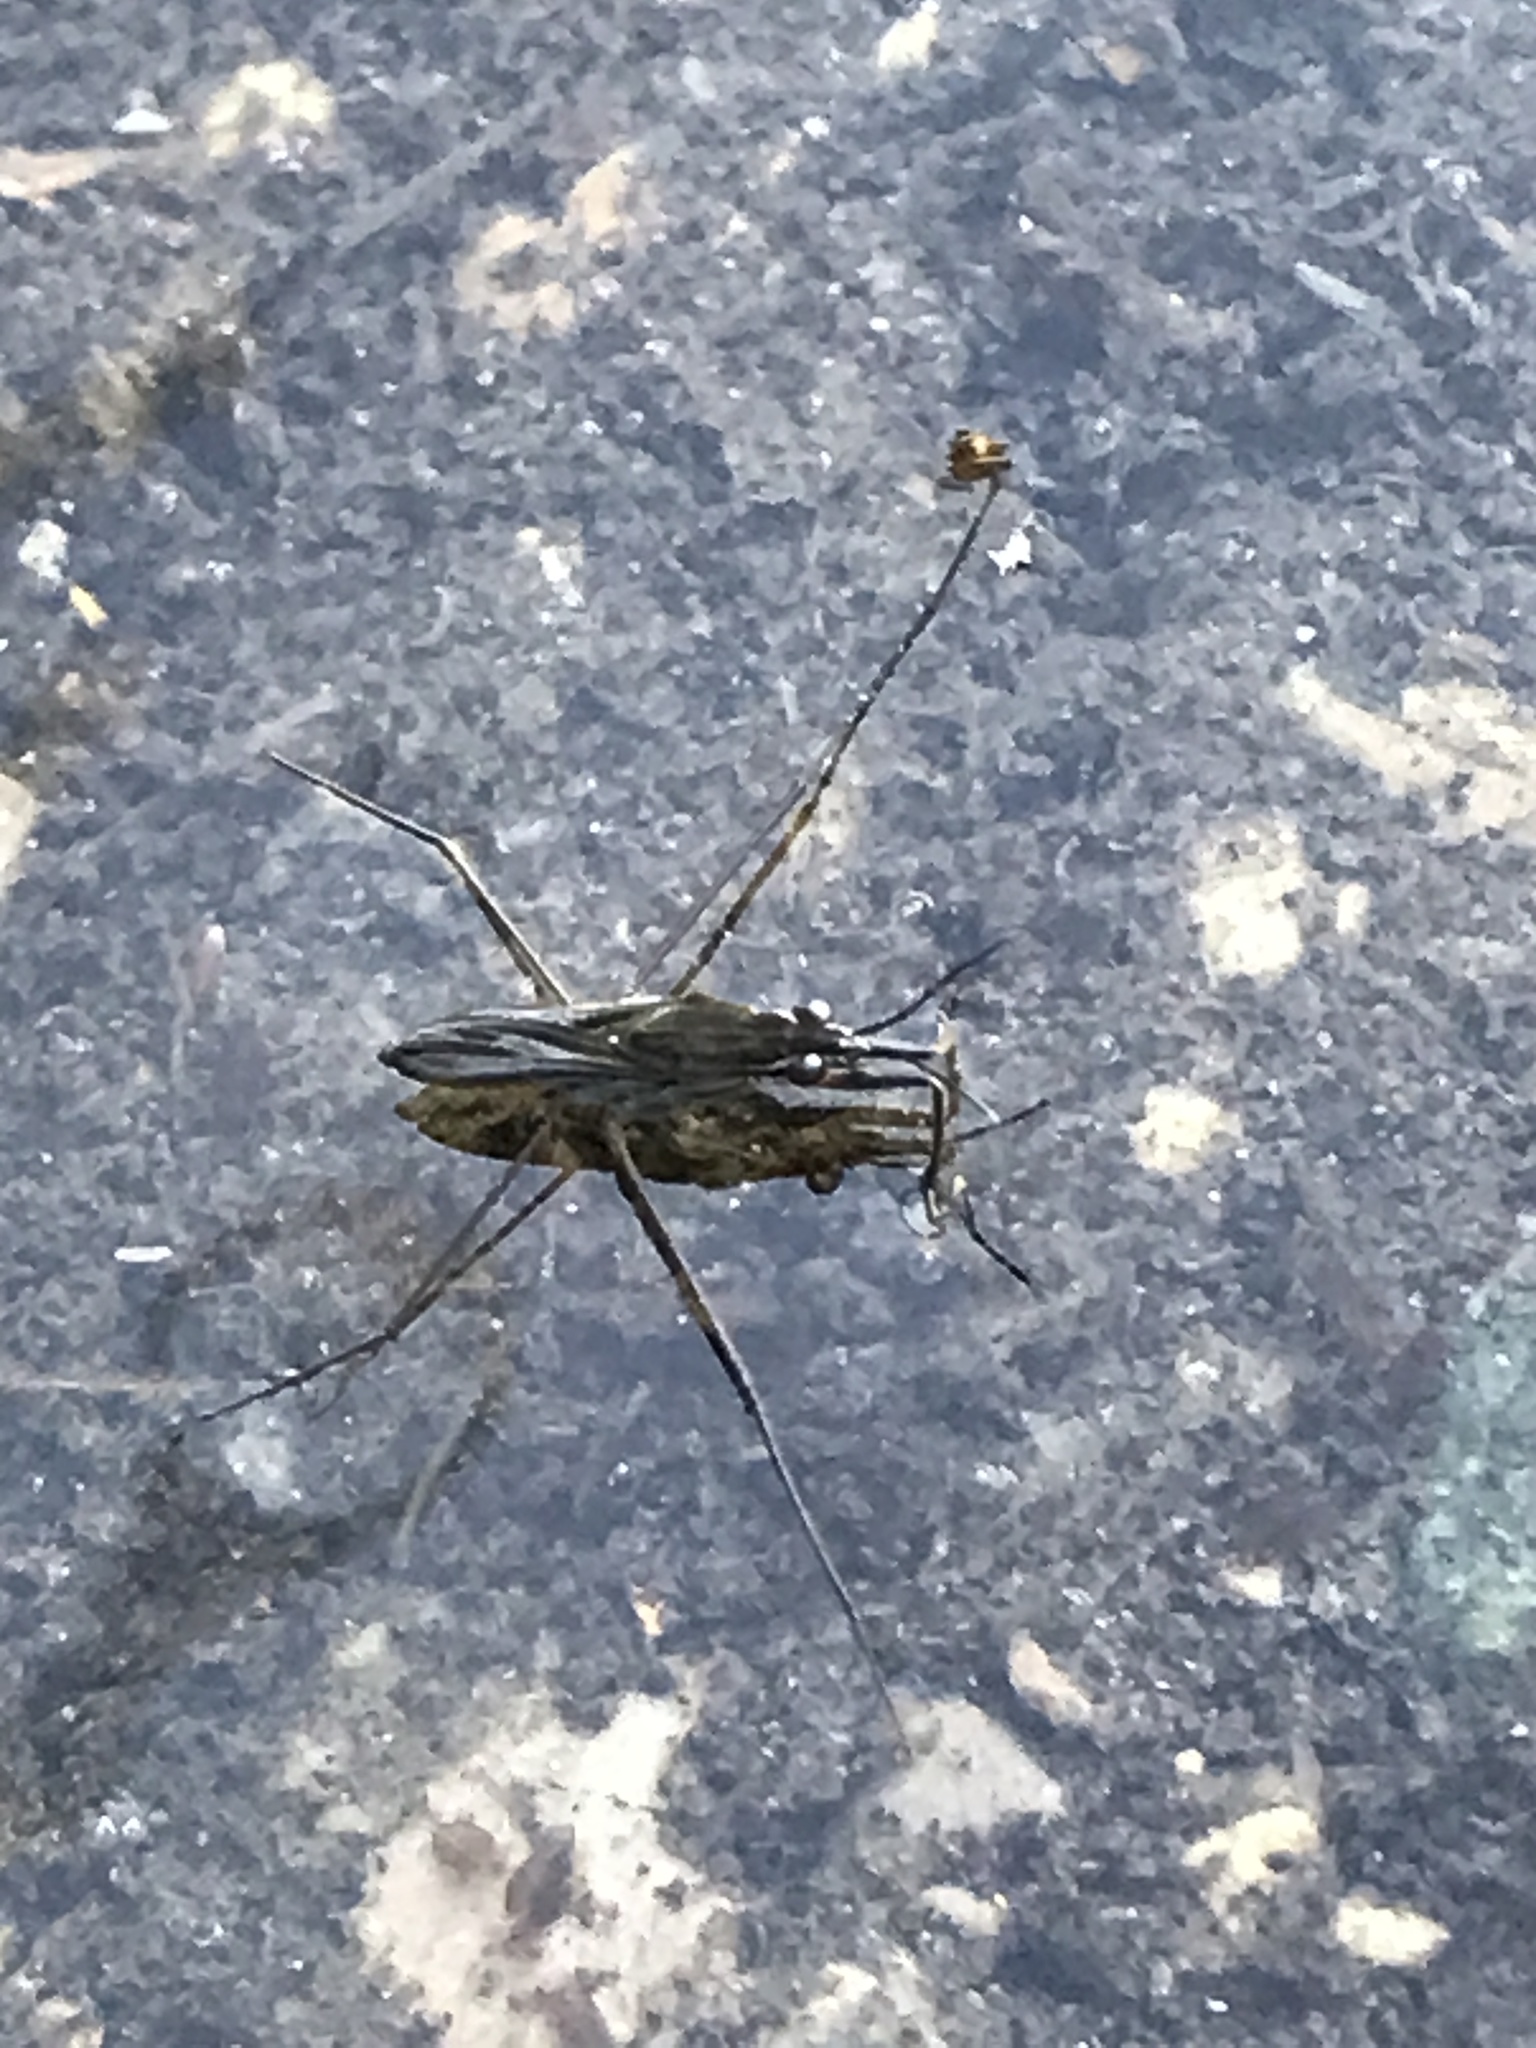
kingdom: Animalia
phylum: Arthropoda
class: Insecta
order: Hemiptera
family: Gerridae
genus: Gerris
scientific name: Gerris
